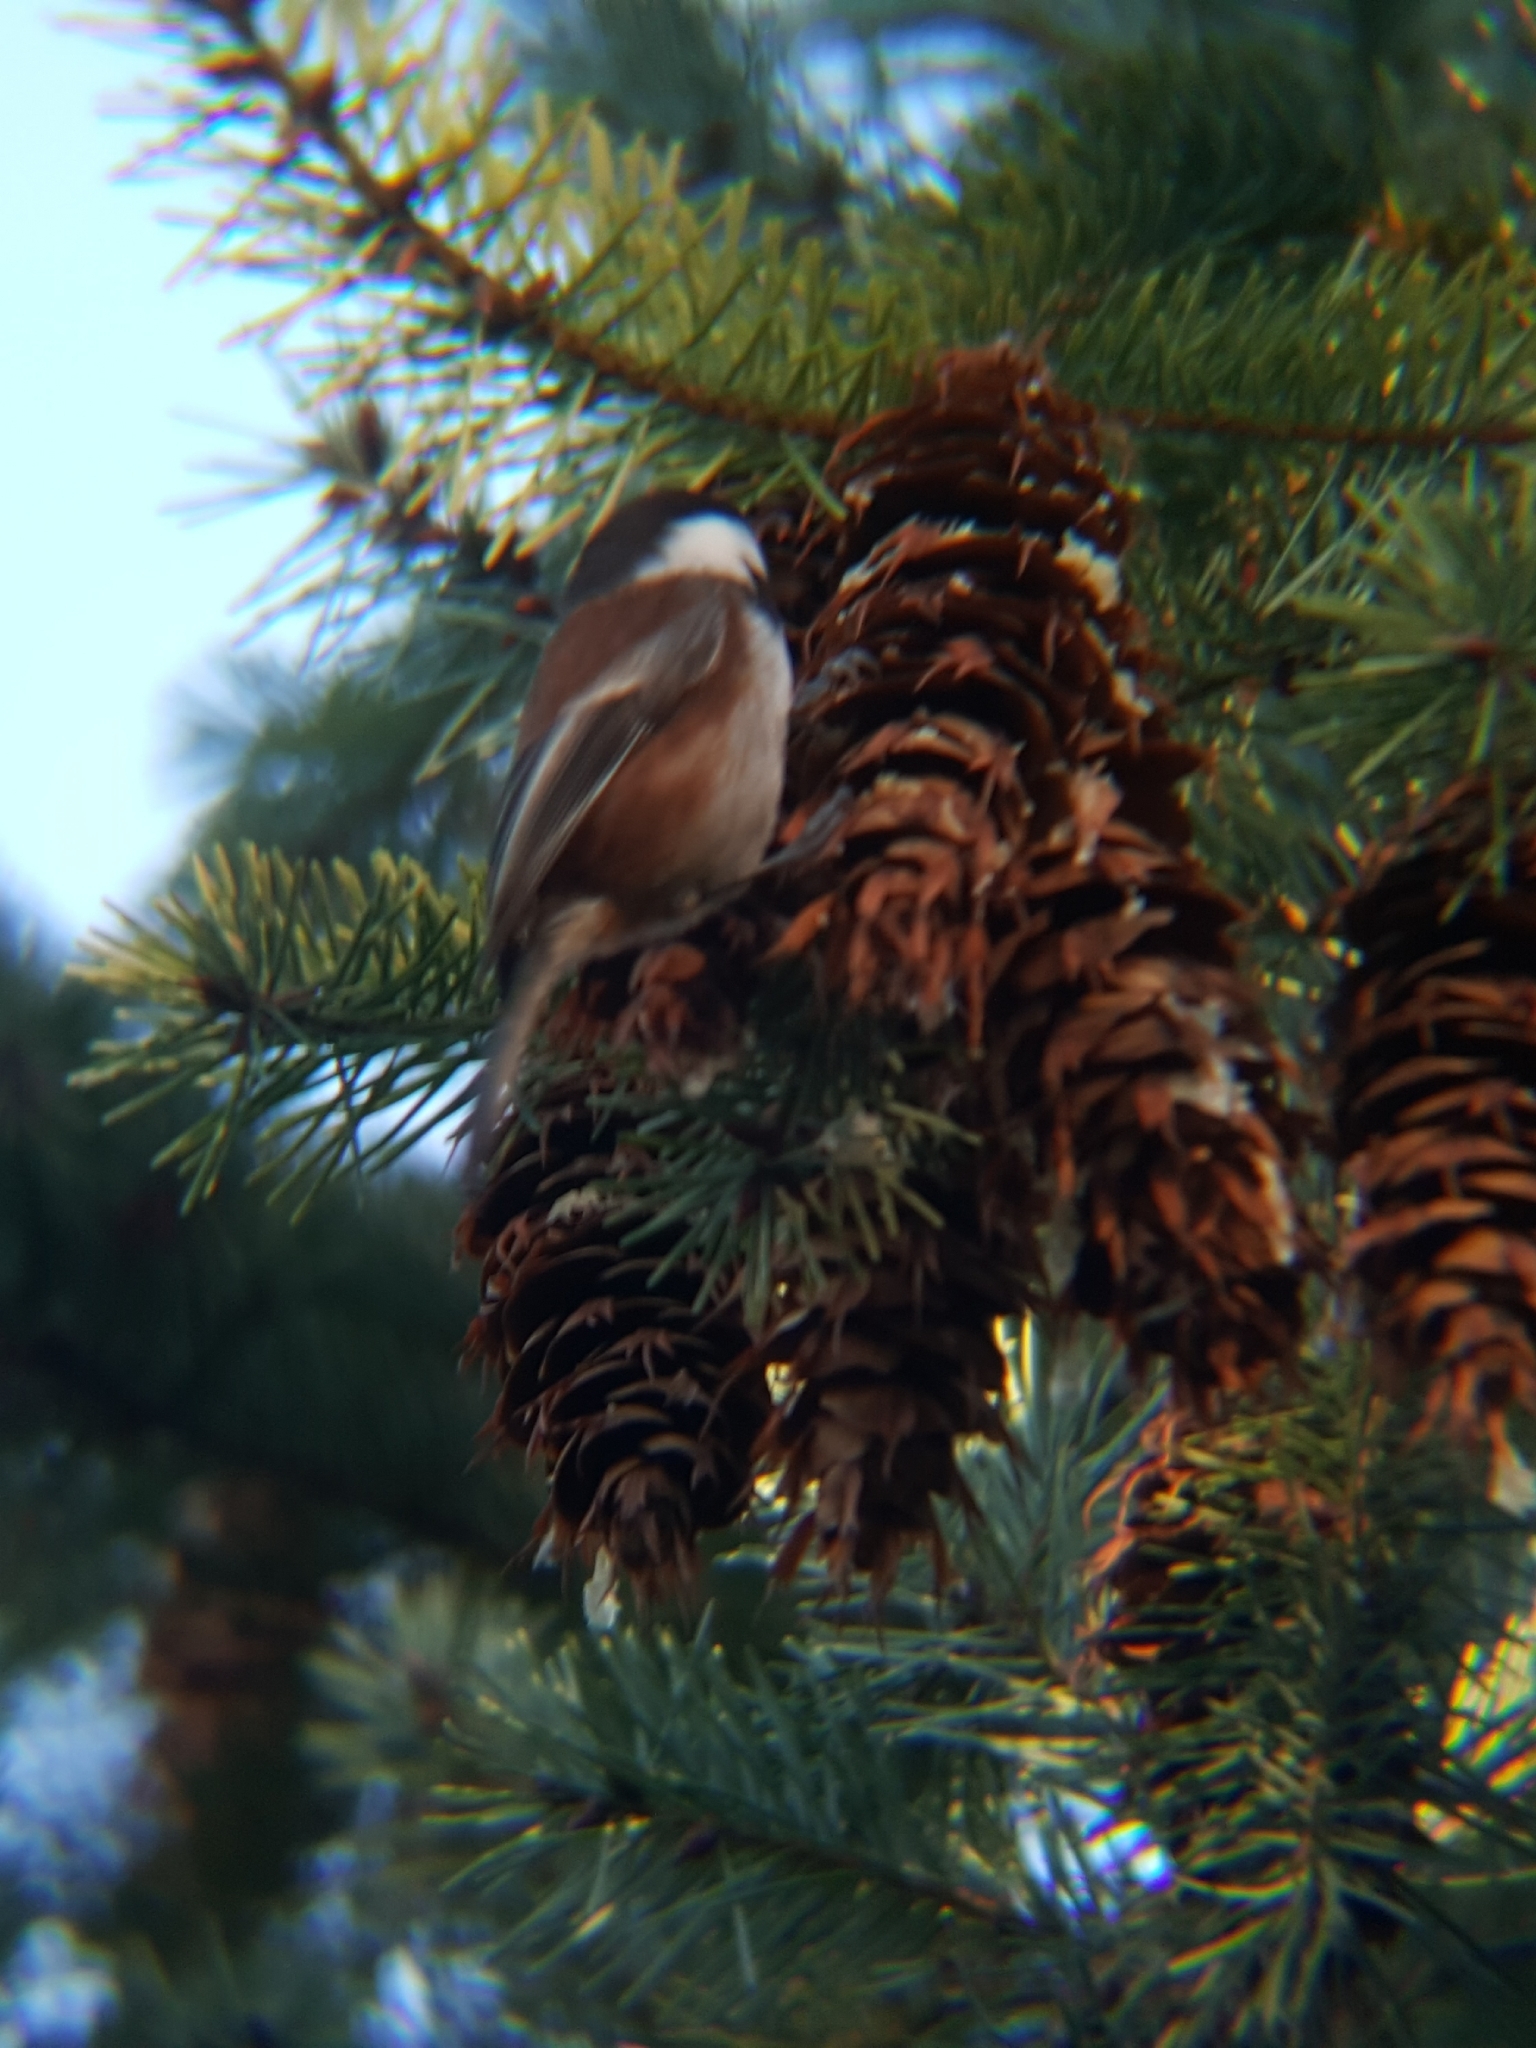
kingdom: Animalia
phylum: Chordata
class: Aves
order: Passeriformes
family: Paridae
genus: Poecile
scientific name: Poecile rufescens
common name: Chestnut-backed chickadee
